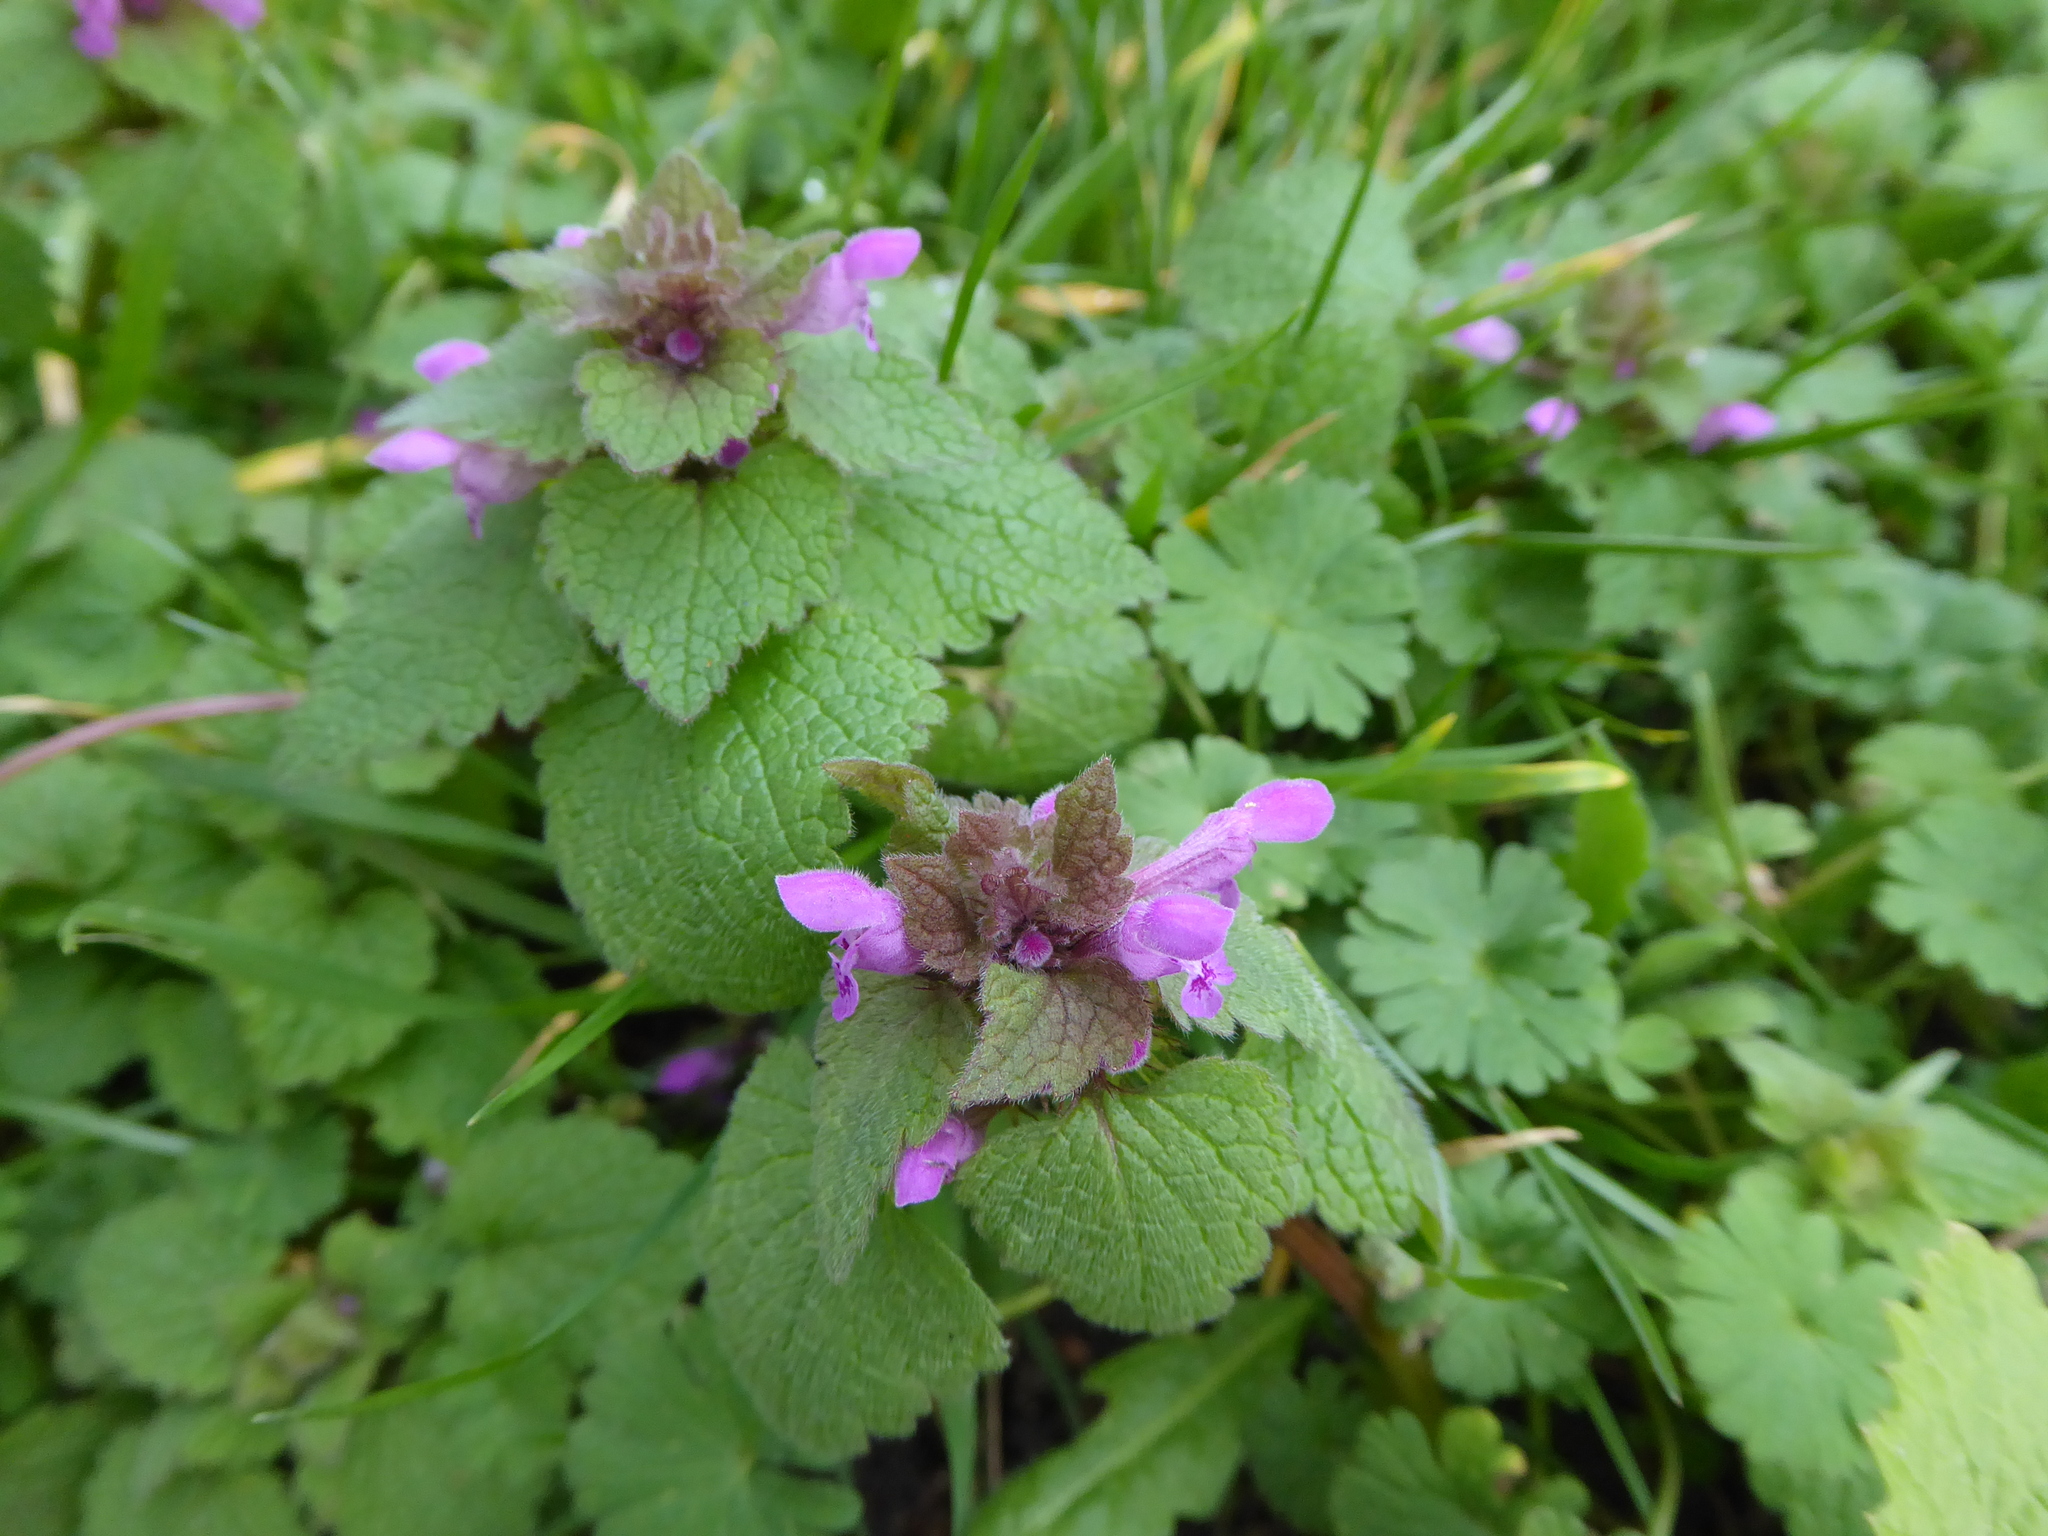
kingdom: Plantae
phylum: Tracheophyta
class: Magnoliopsida
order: Lamiales
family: Lamiaceae
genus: Lamium
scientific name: Lamium purpureum
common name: Red dead-nettle
